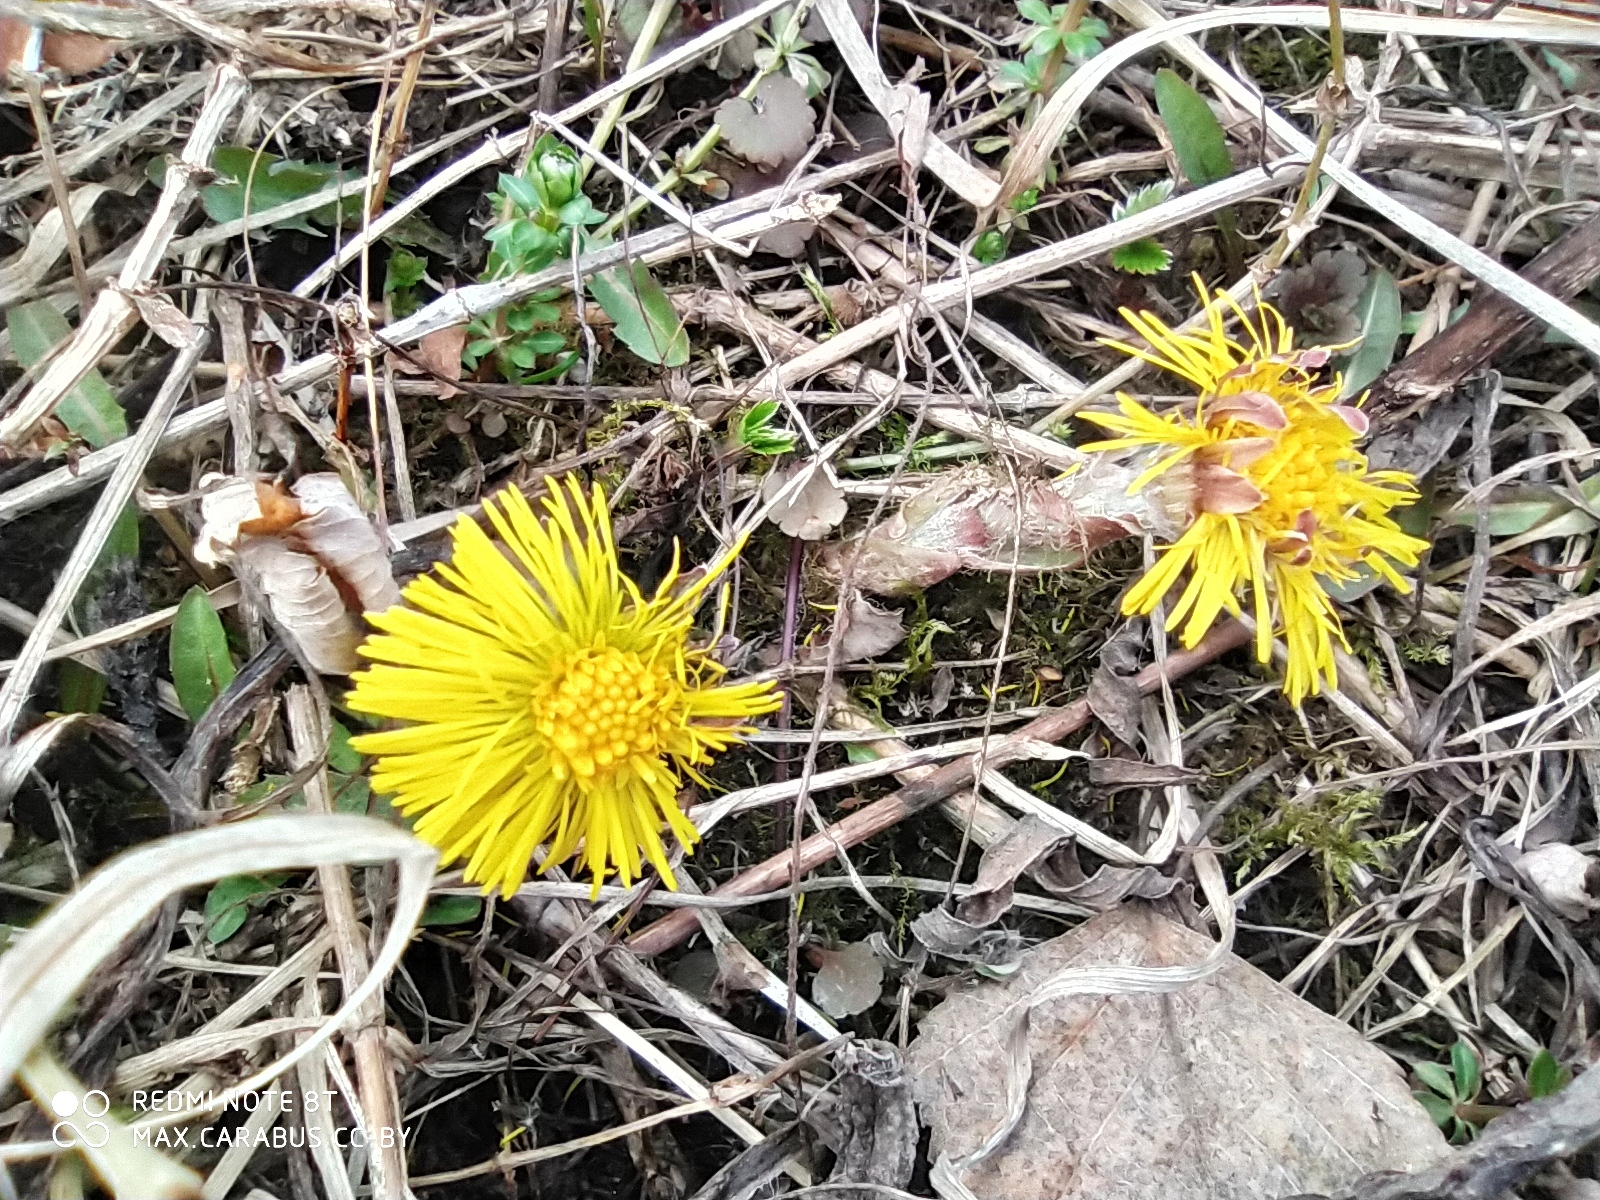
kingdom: Plantae
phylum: Tracheophyta
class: Magnoliopsida
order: Asterales
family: Asteraceae
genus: Tussilago
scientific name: Tussilago farfara
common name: Coltsfoot
